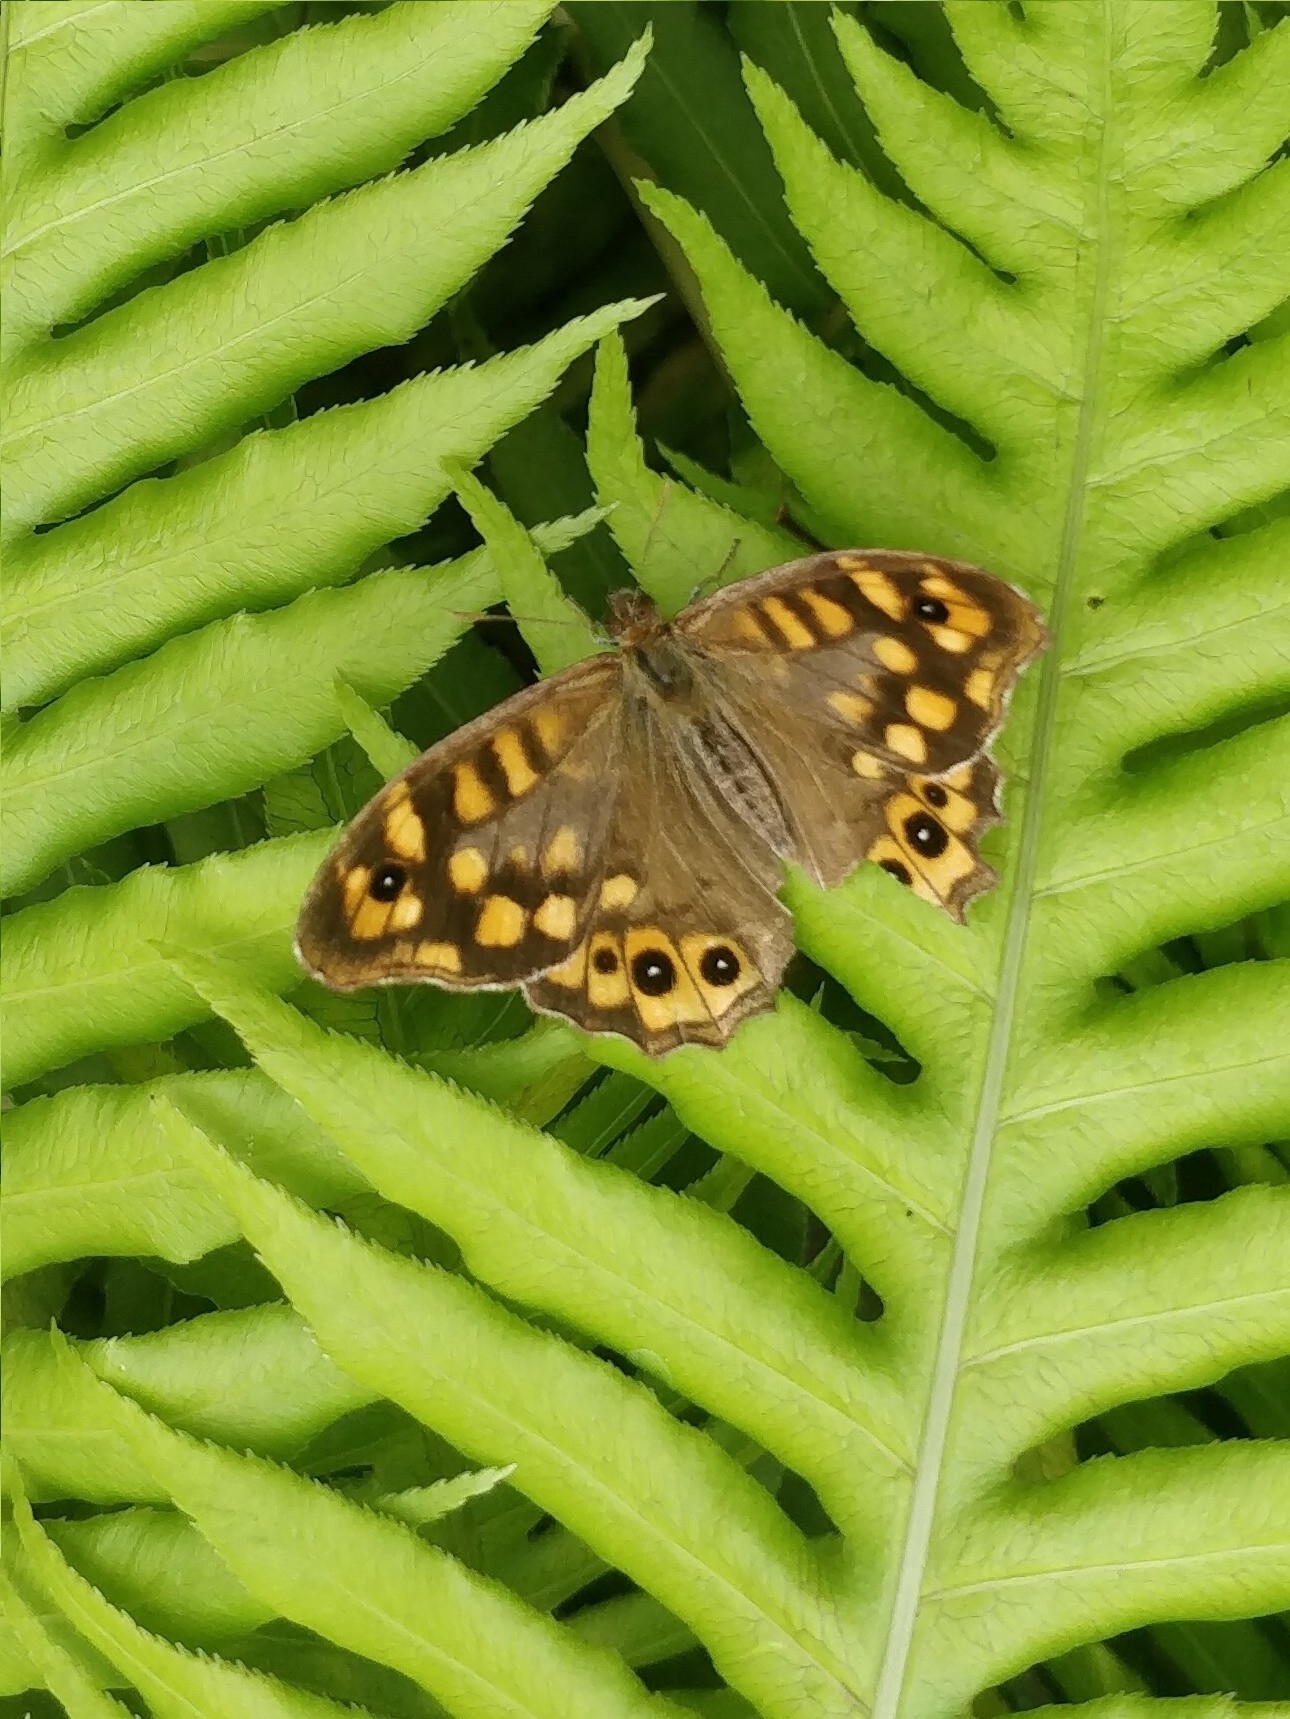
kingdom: Animalia
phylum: Arthropoda
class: Insecta
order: Lepidoptera
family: Nymphalidae
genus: Pararge
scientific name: Pararge aegeria
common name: Speckled wood
